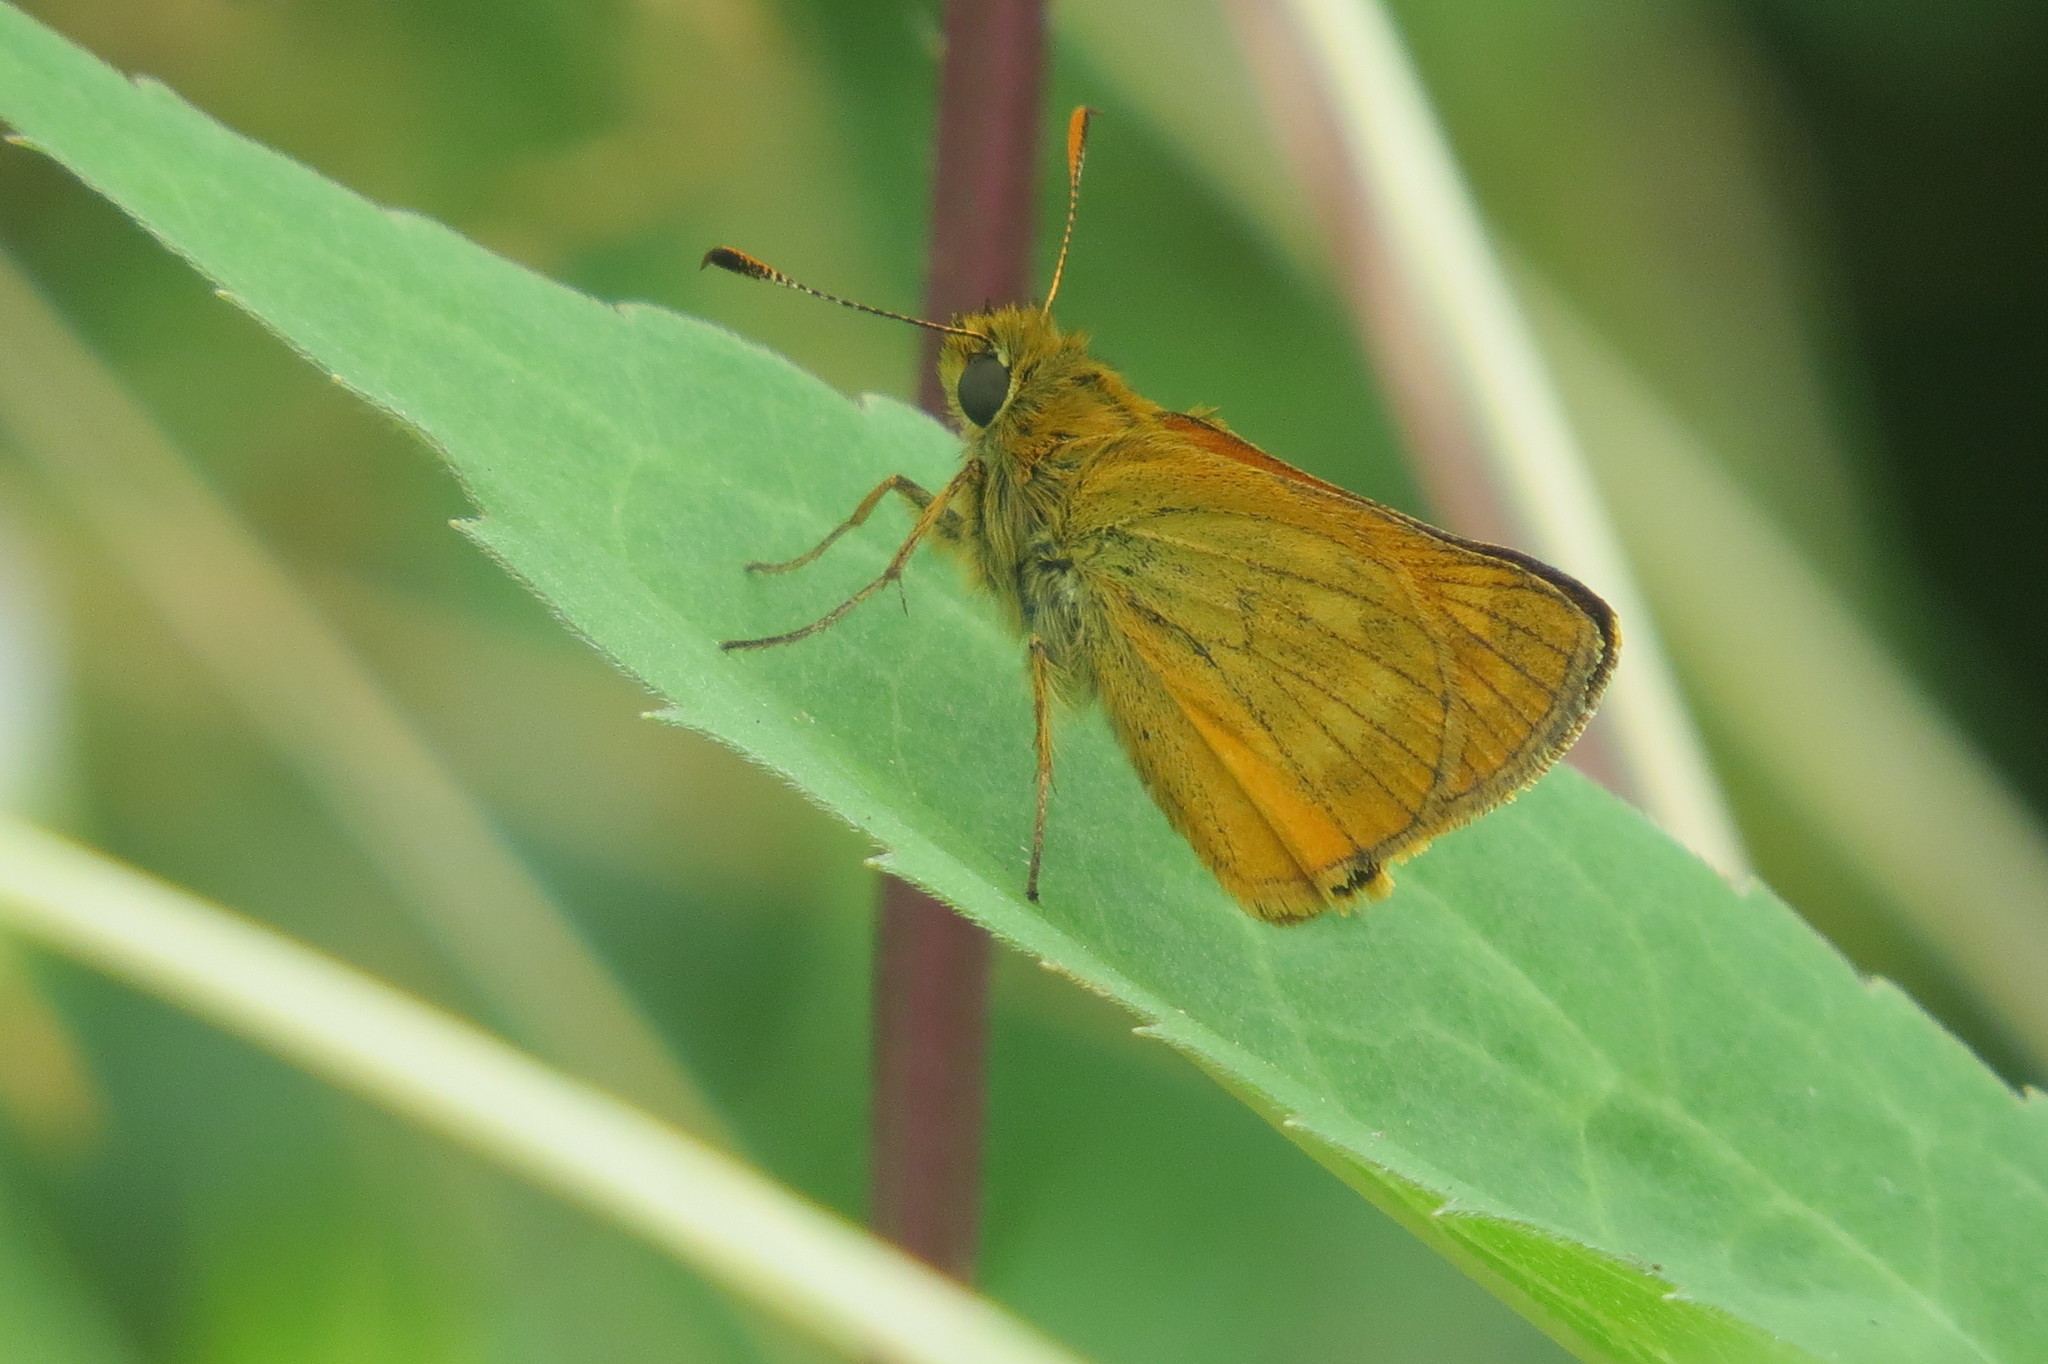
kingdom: Animalia
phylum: Arthropoda
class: Insecta
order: Lepidoptera
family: Hesperiidae
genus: Ochlodes
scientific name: Ochlodes venata
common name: Large skipper
